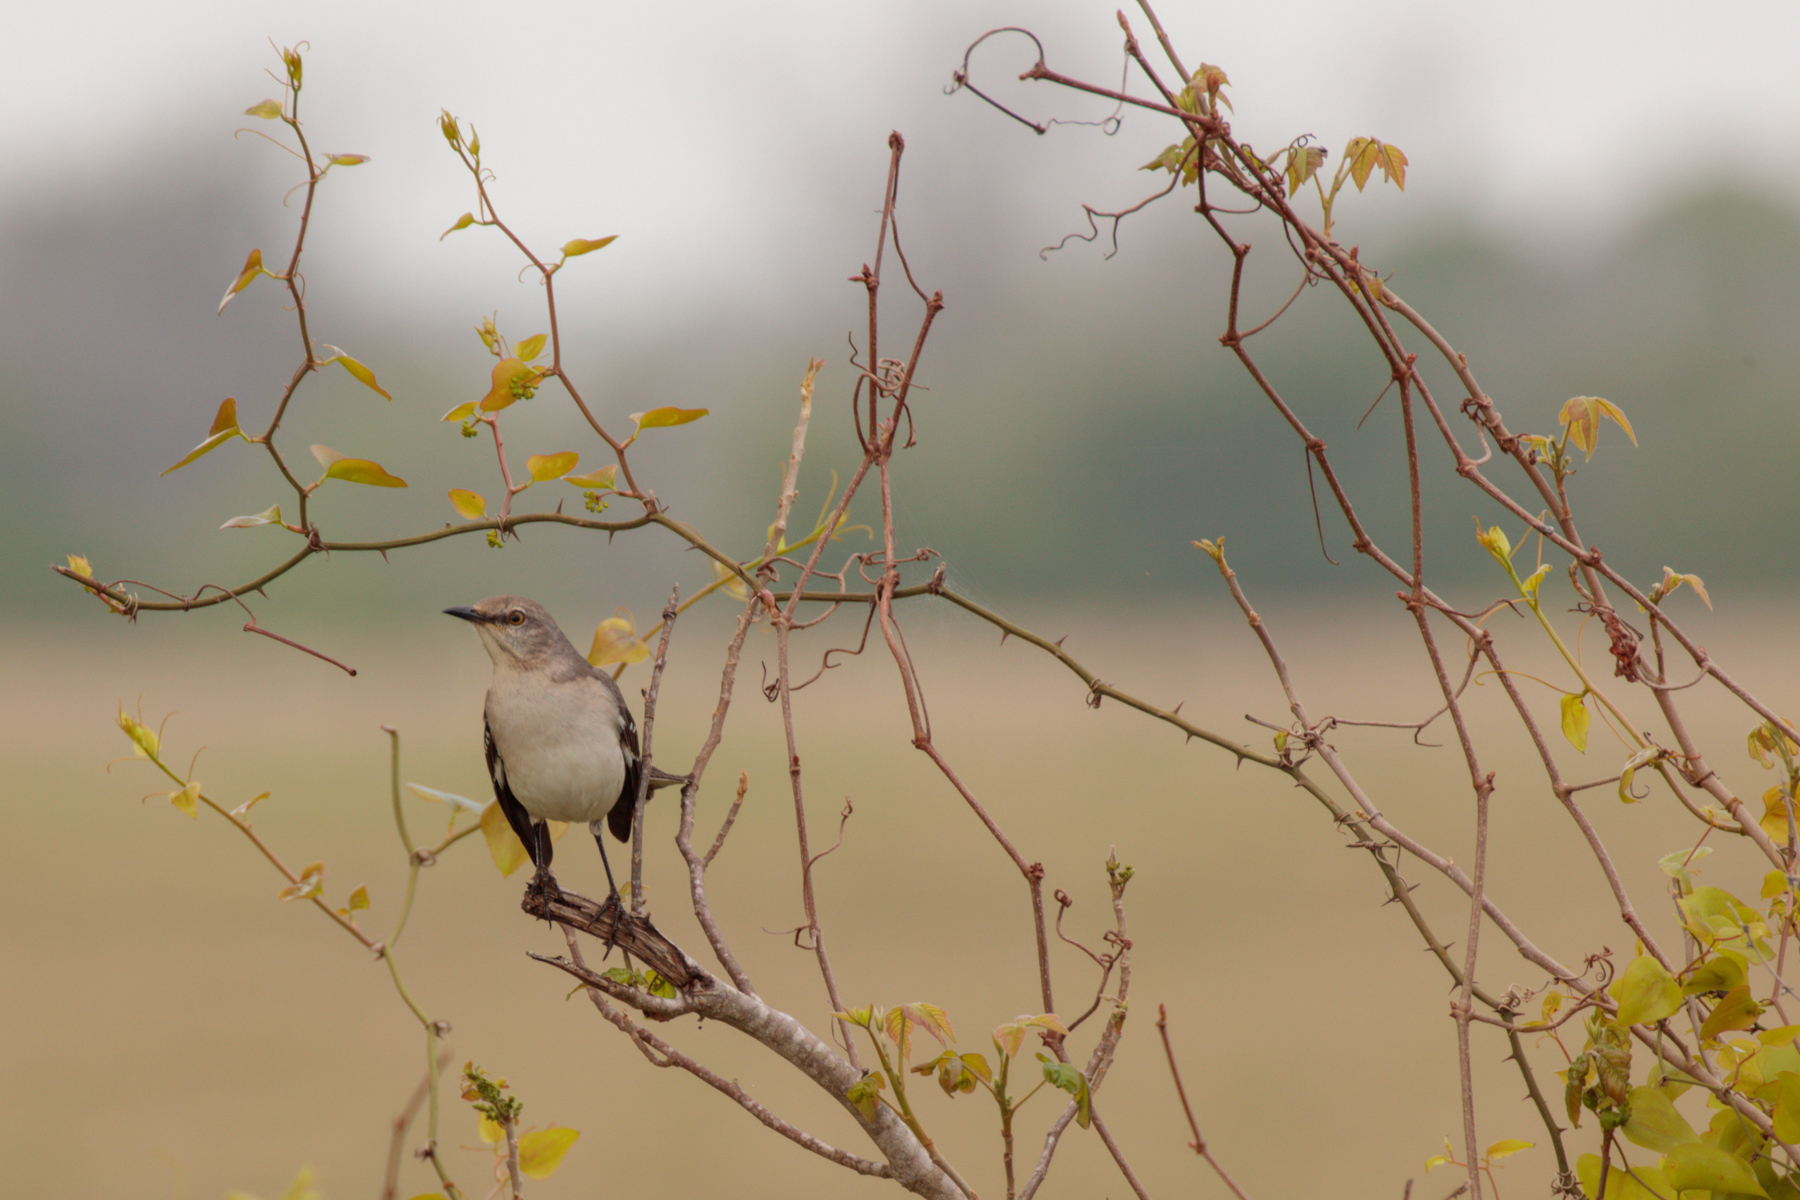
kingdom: Animalia
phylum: Chordata
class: Aves
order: Passeriformes
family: Mimidae
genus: Mimus
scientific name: Mimus polyglottos
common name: Northern mockingbird
